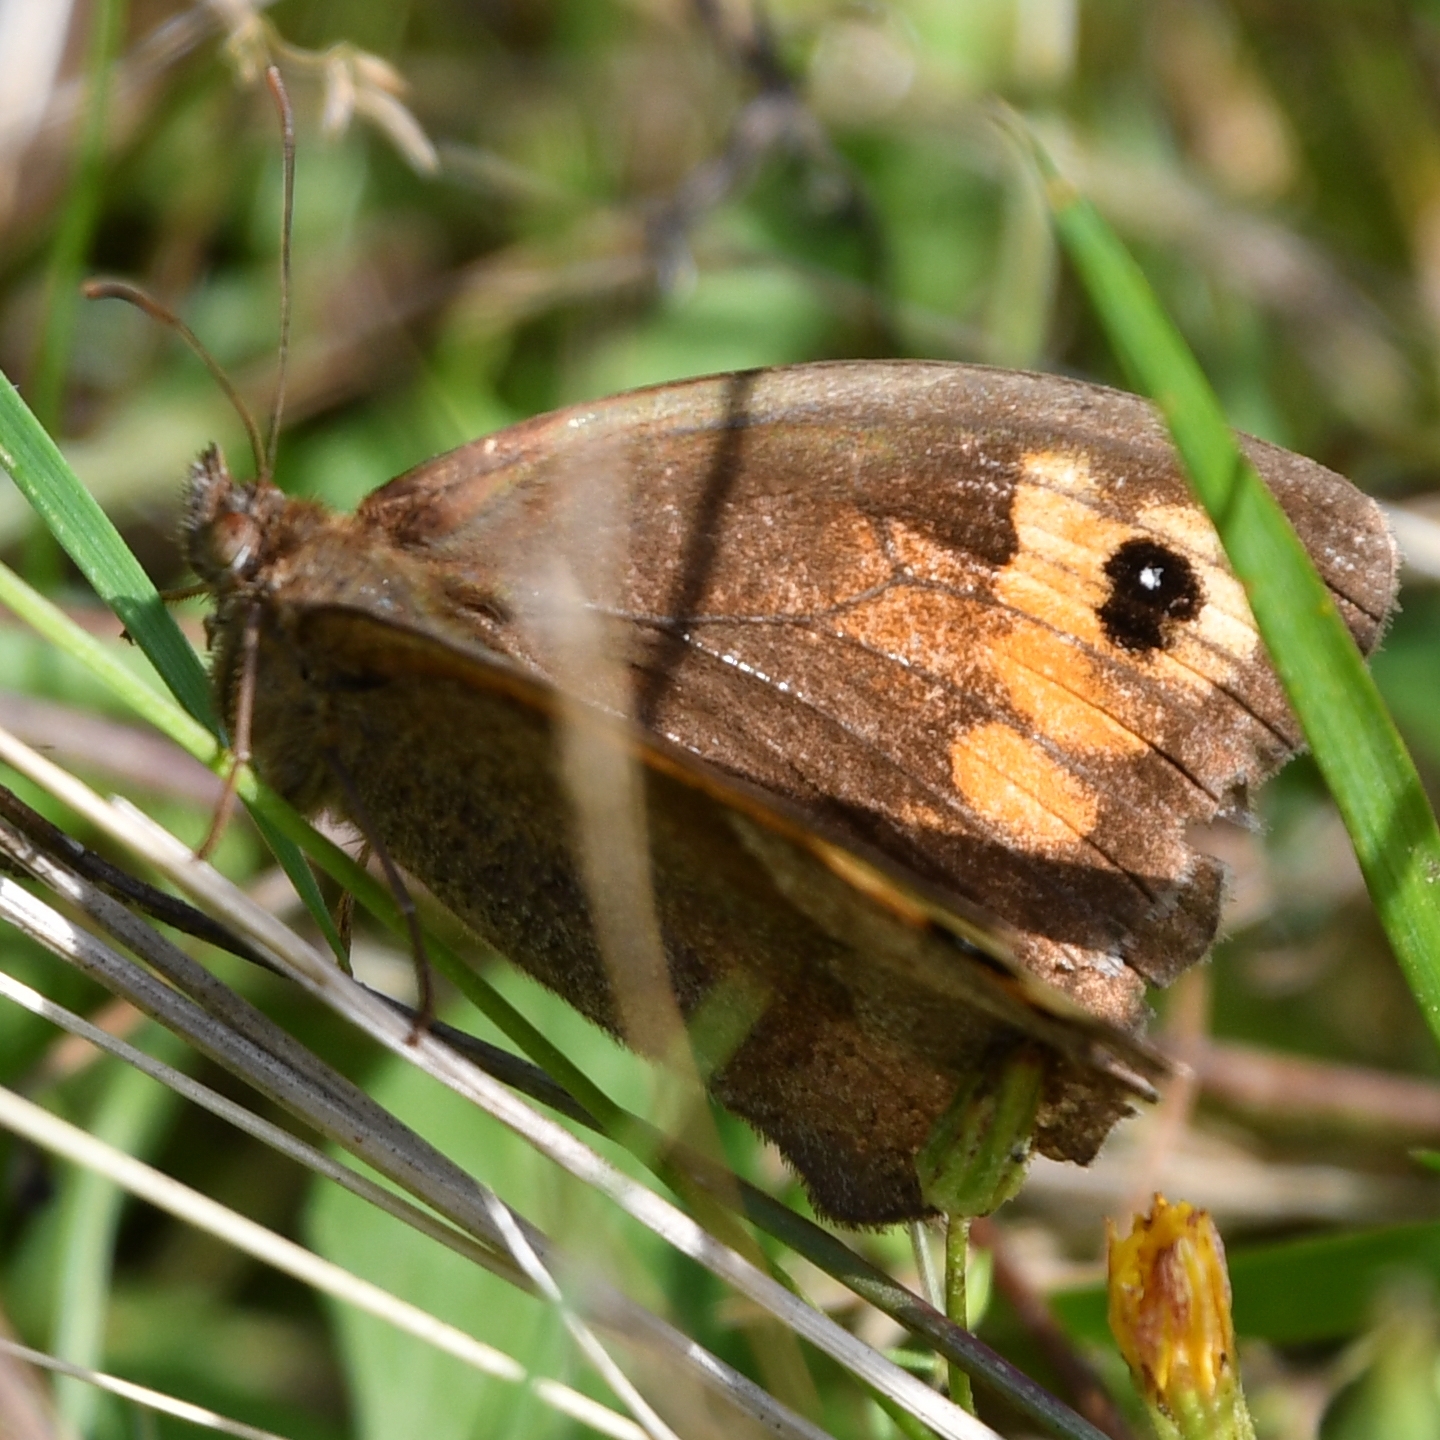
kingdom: Animalia
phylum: Arthropoda
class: Insecta
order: Lepidoptera
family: Nymphalidae
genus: Maniola
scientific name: Maniola jurtina
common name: Meadow brown
